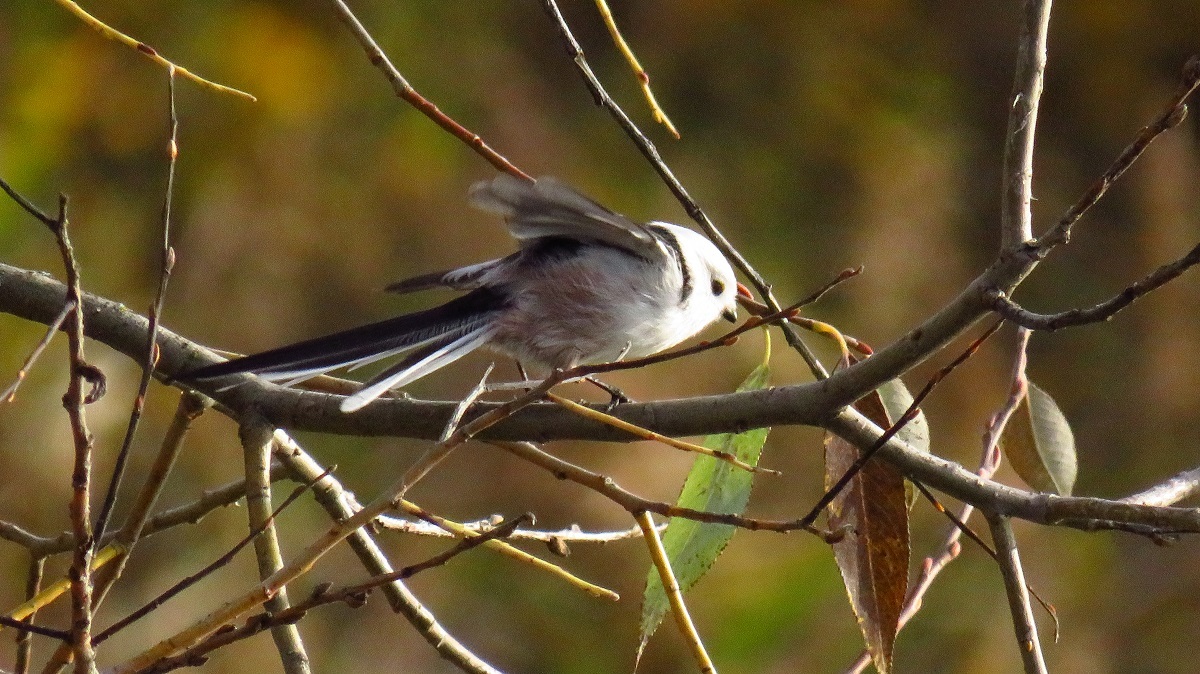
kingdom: Animalia
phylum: Chordata
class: Aves
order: Passeriformes
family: Aegithalidae
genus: Aegithalos
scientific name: Aegithalos caudatus
